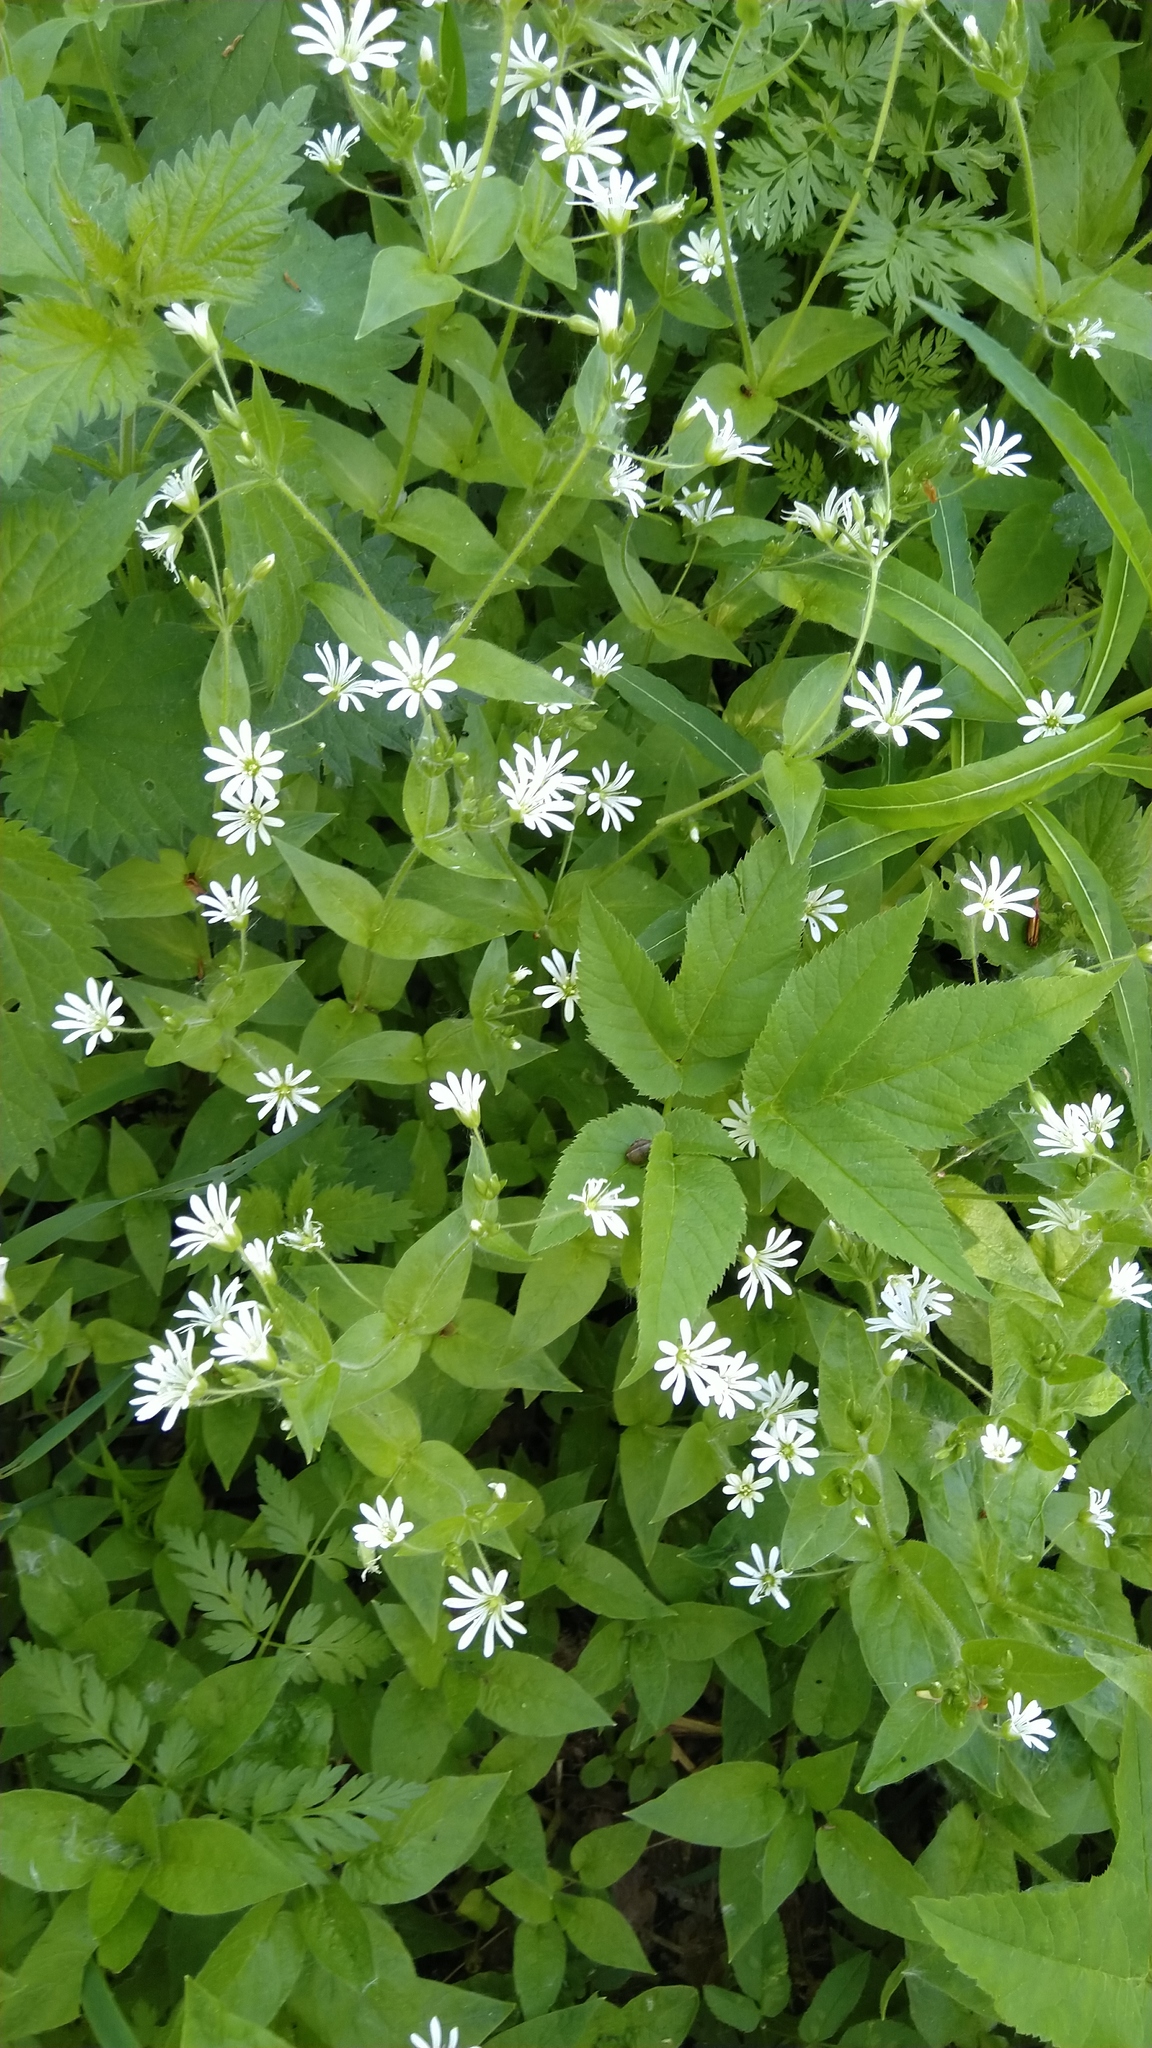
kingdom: Plantae
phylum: Tracheophyta
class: Magnoliopsida
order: Caryophyllales
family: Caryophyllaceae
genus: Stellaria
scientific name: Stellaria nemorum
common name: Wood stitchwort
